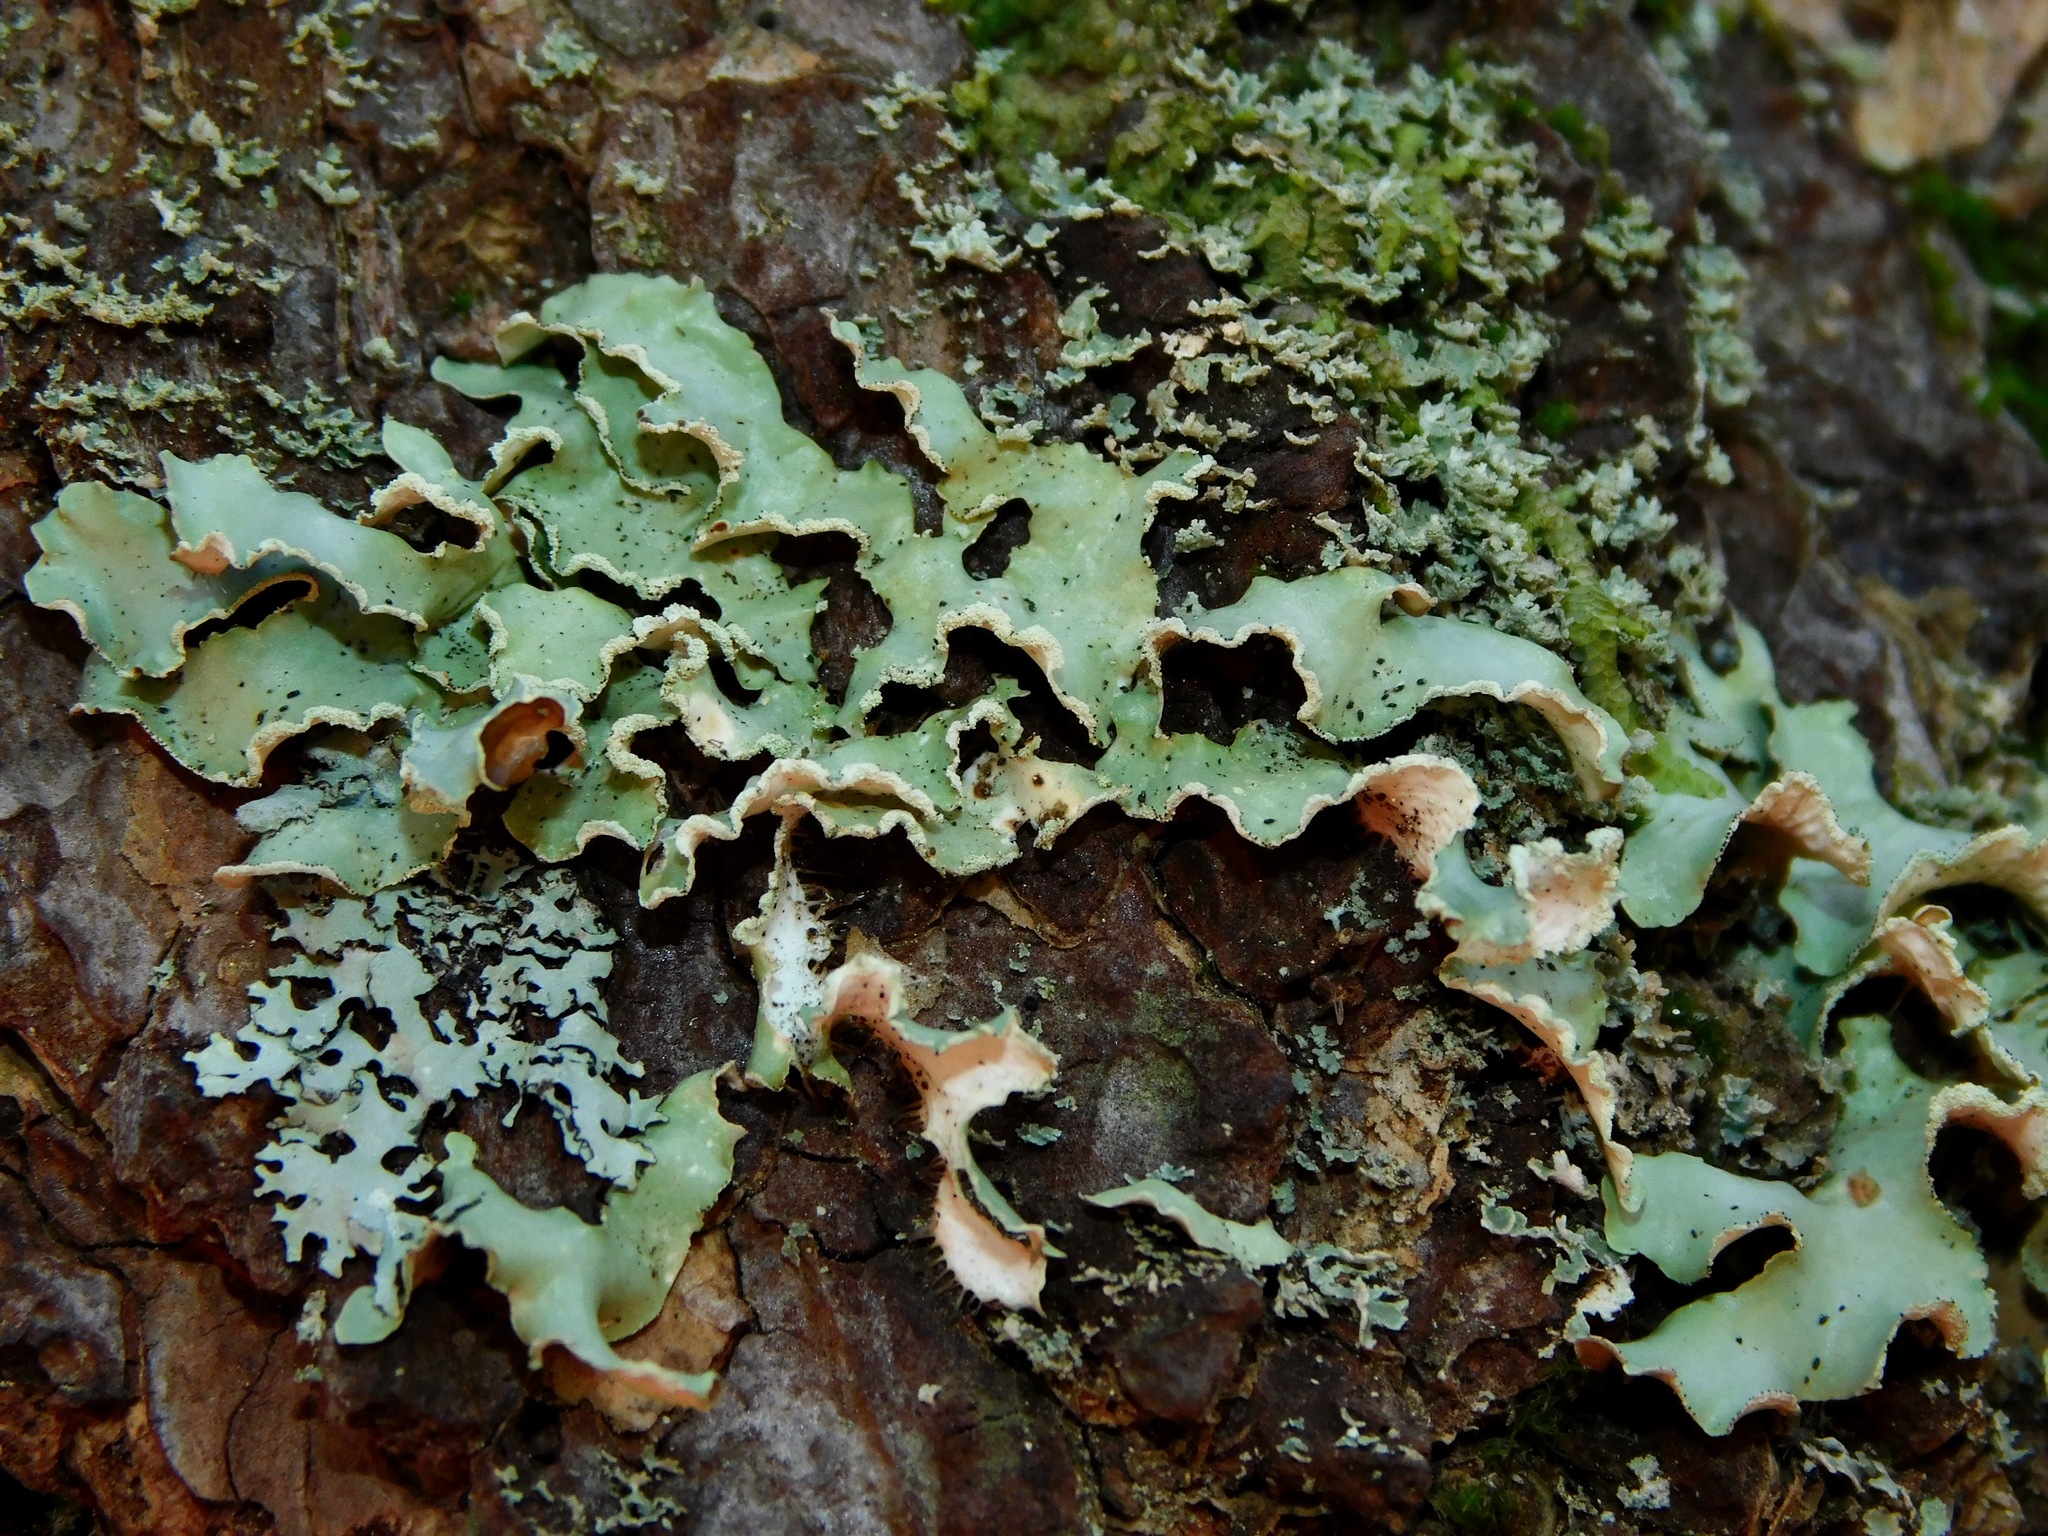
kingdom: Fungi
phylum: Ascomycota
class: Lecanoromycetes
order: Lecanorales
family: Parmeliaceae
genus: Usnocetraria
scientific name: Usnocetraria oakesiana
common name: Yellow ribbon lichen
